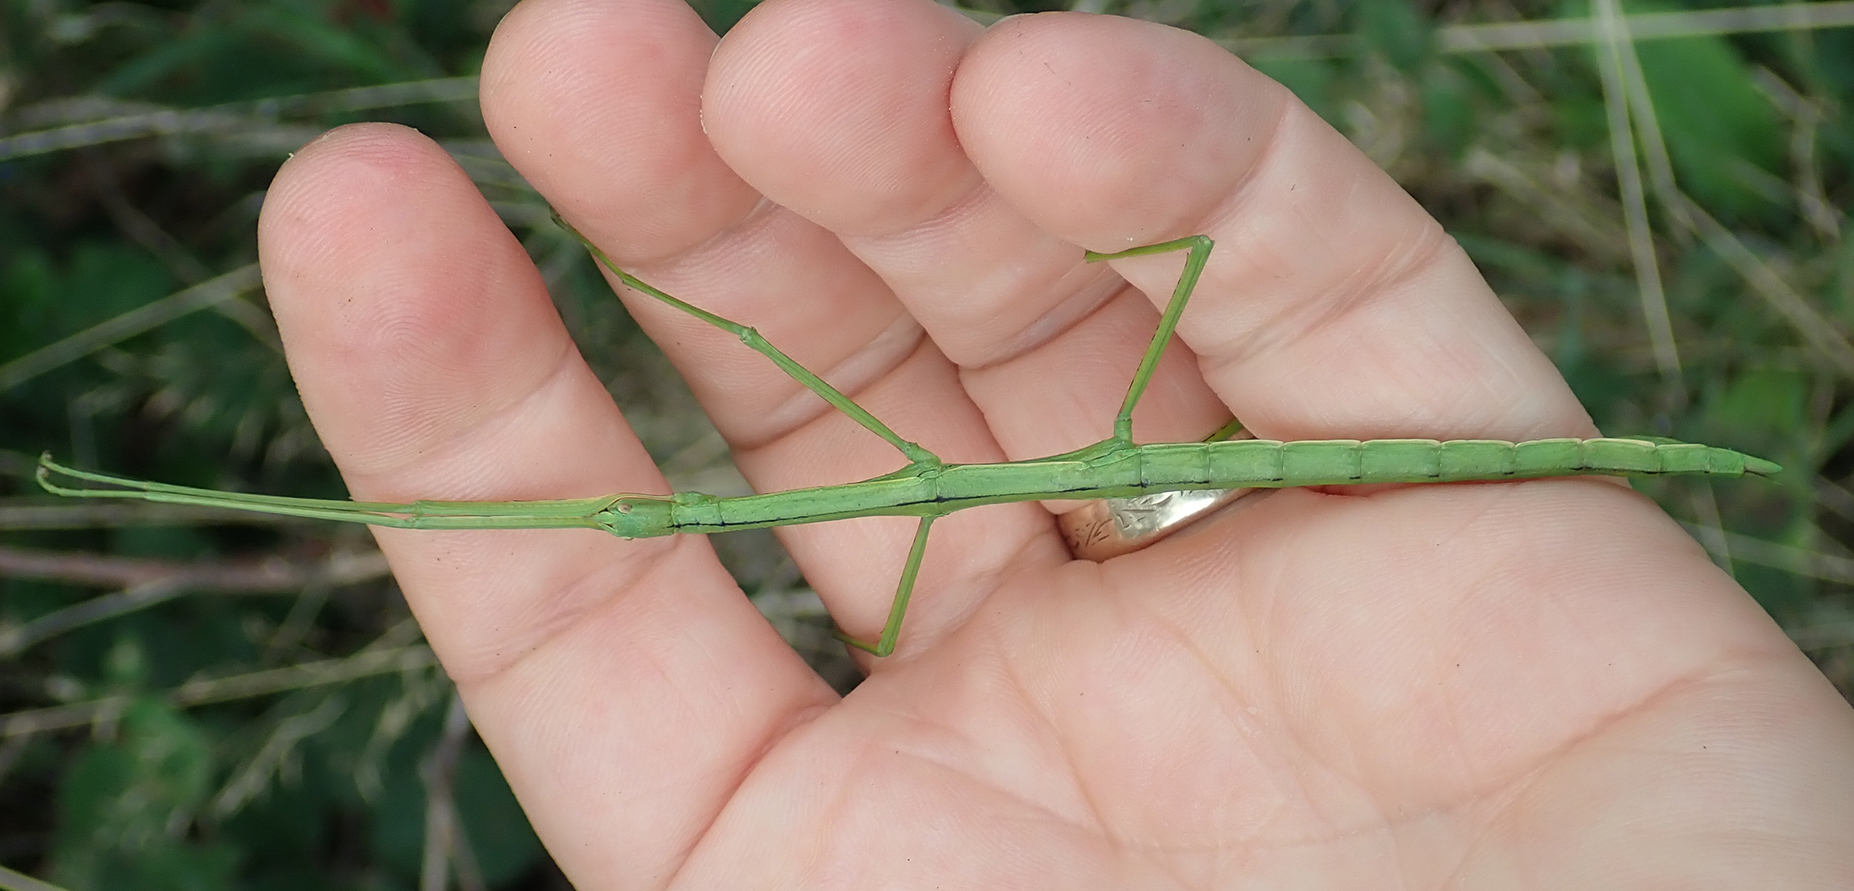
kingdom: Animalia
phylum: Arthropoda
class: Insecta
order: Phasmida
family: Phasmatidae
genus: Clitarchus
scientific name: Clitarchus hookeri
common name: Smooth stick insect
